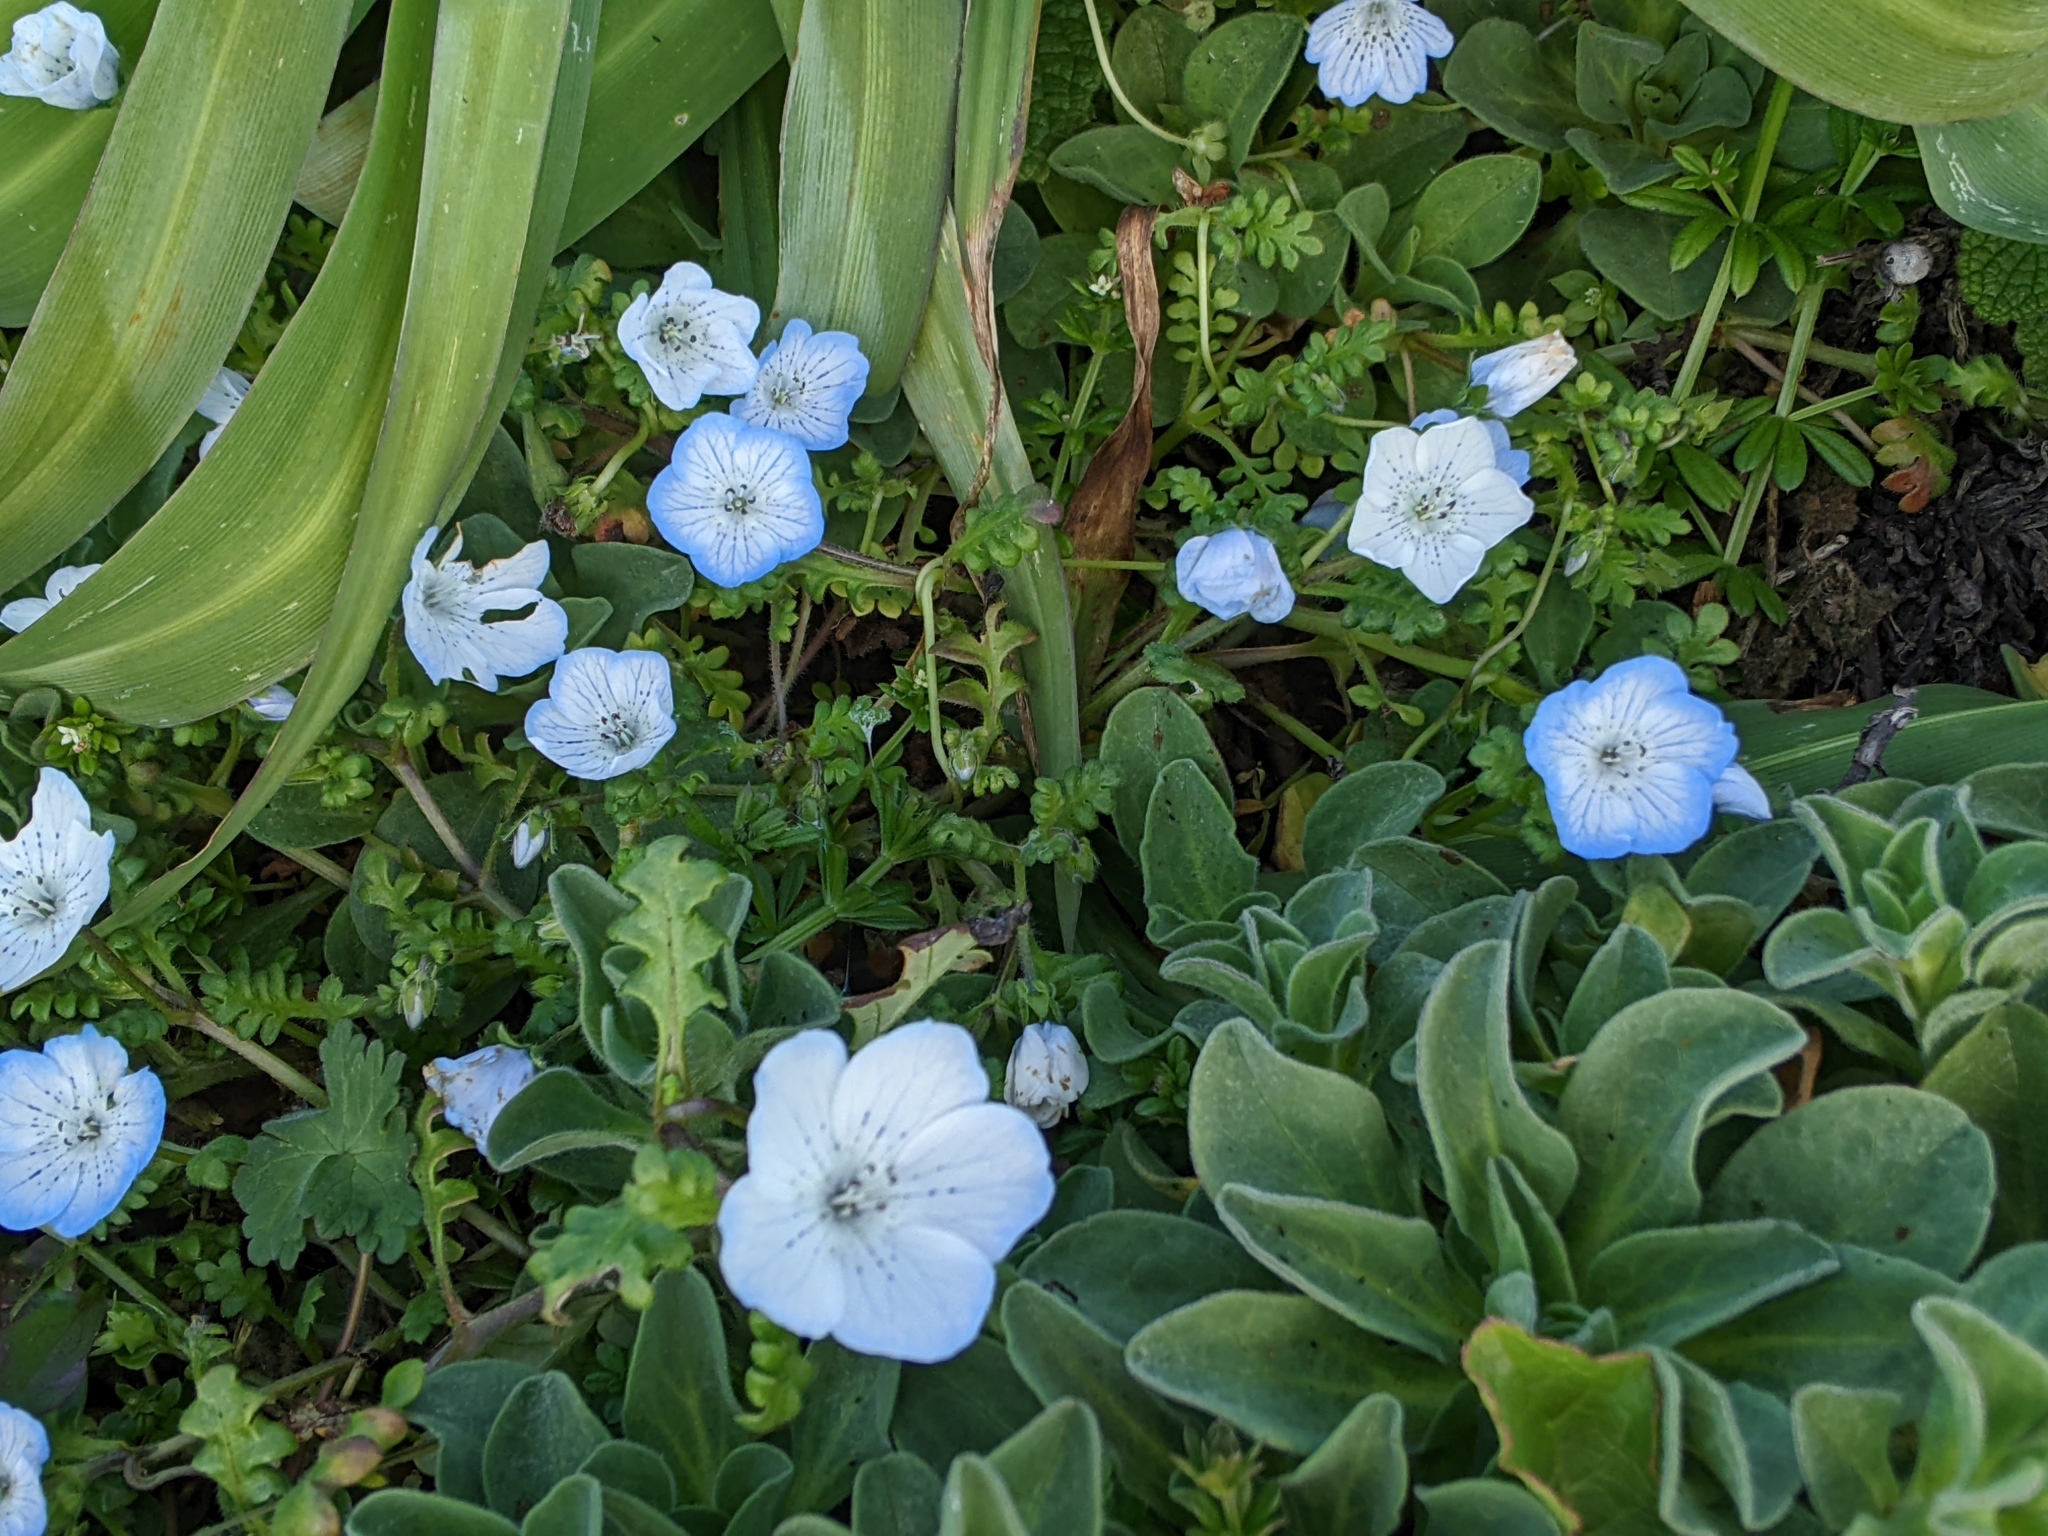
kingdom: Plantae
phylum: Tracheophyta
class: Magnoliopsida
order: Boraginales
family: Hydrophyllaceae
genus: Nemophila
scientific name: Nemophila menziesii
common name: Baby's-blue-eyes
